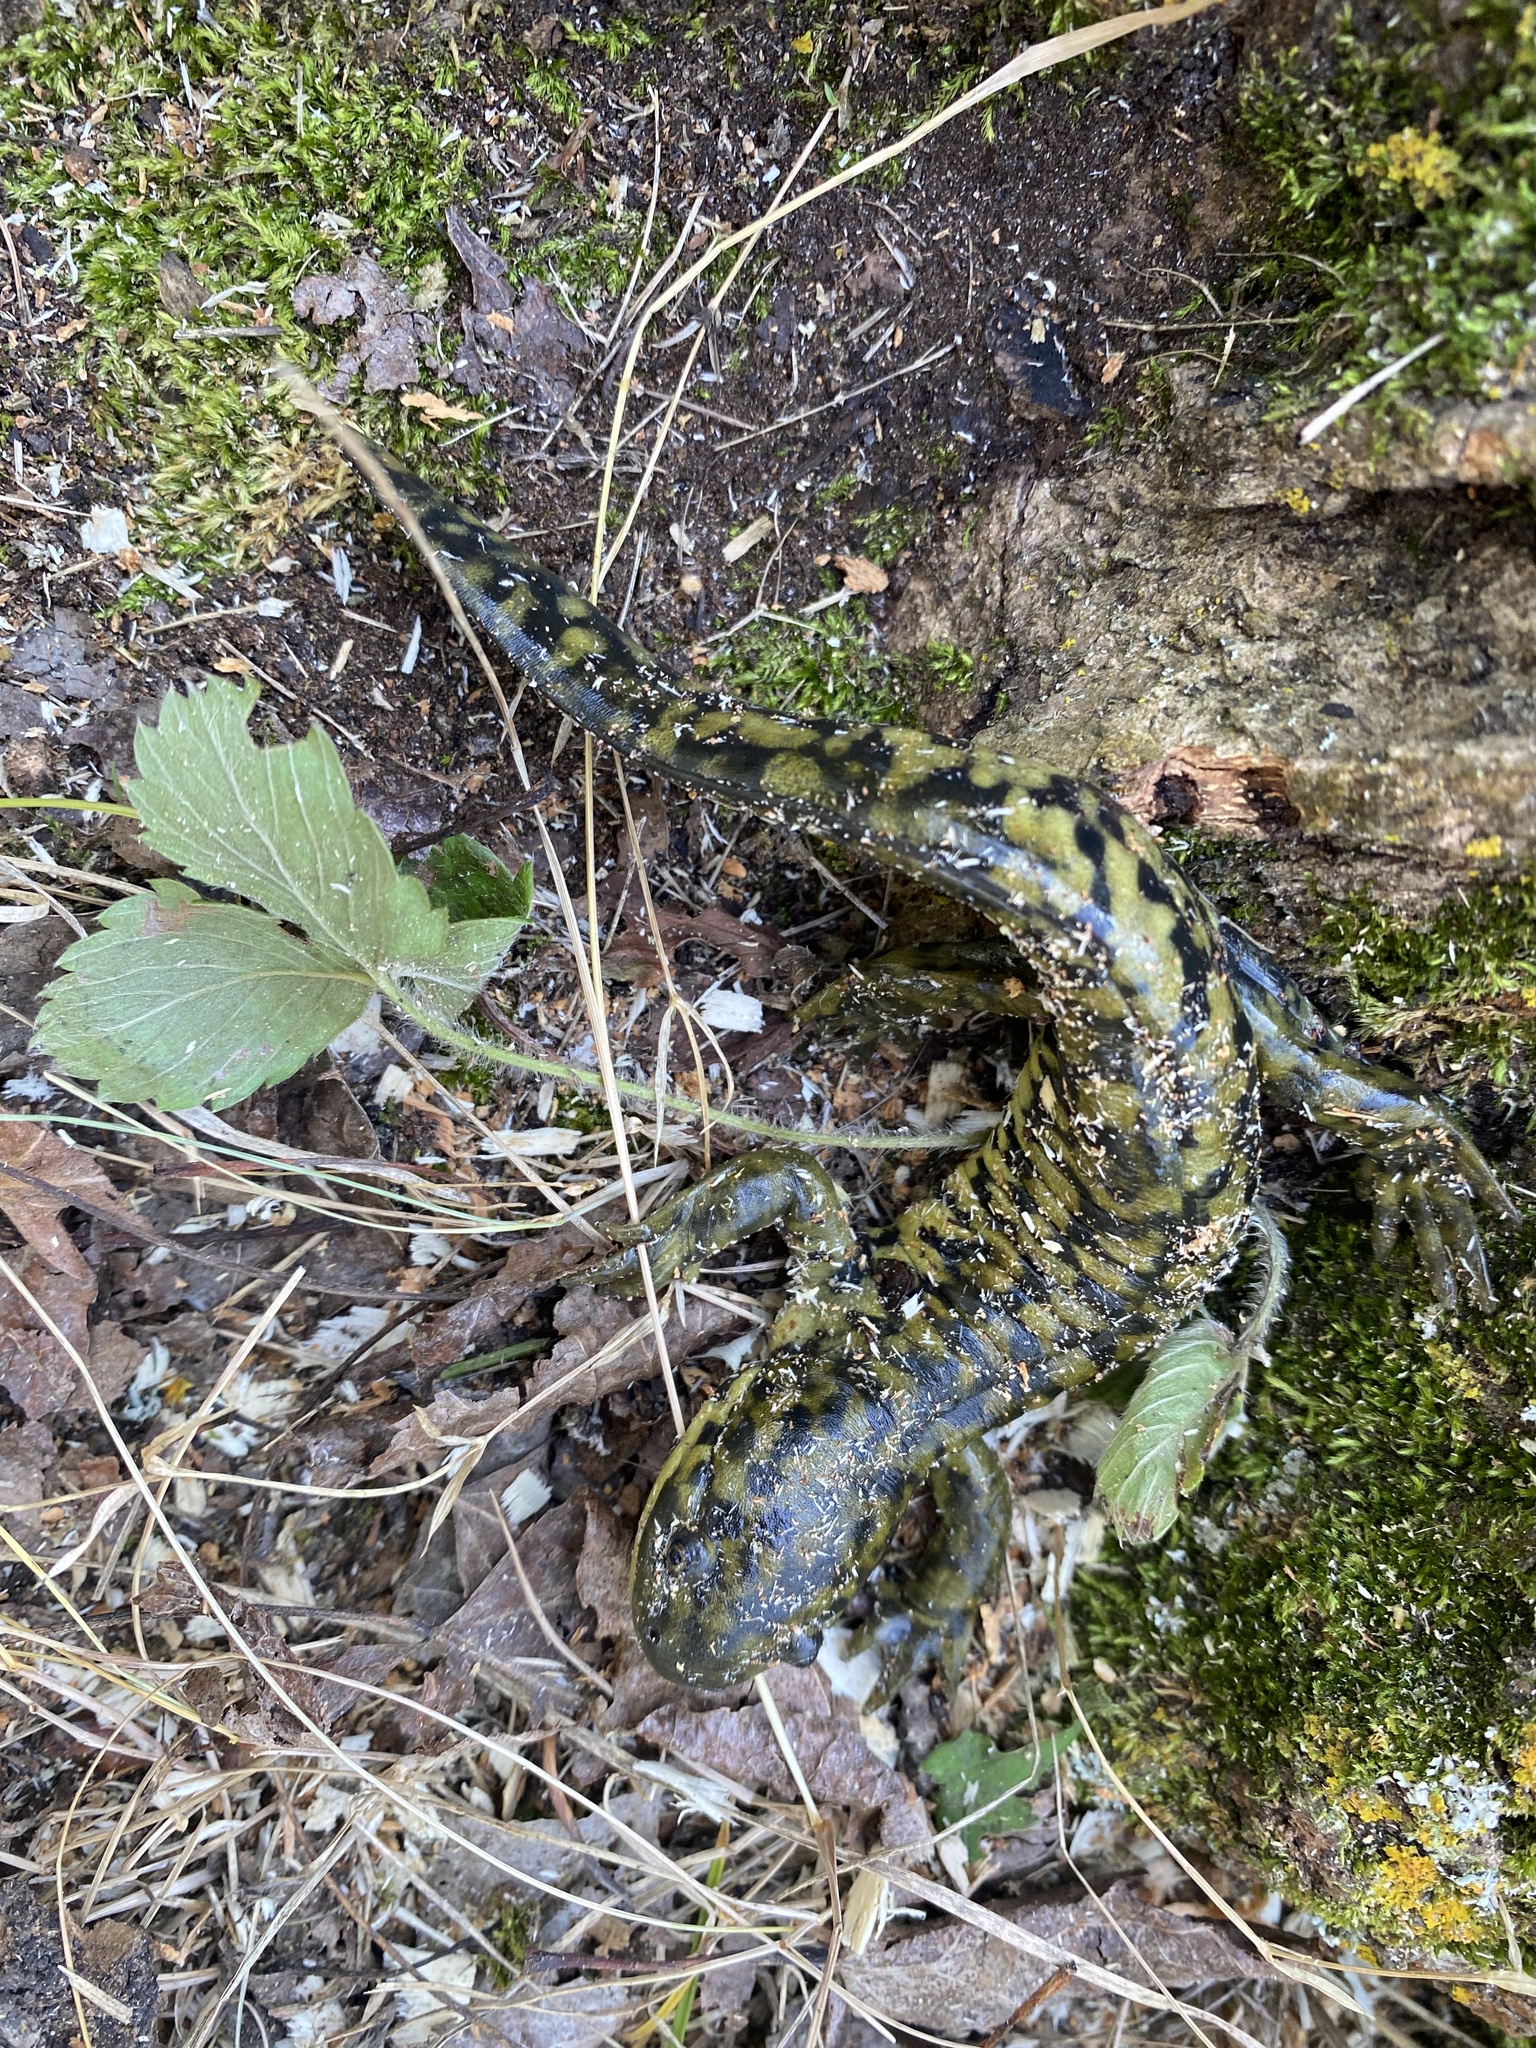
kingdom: Animalia
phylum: Chordata
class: Amphibia
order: Caudata
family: Ambystomatidae
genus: Ambystoma
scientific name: Ambystoma mavortium
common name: Western tiger salamander
